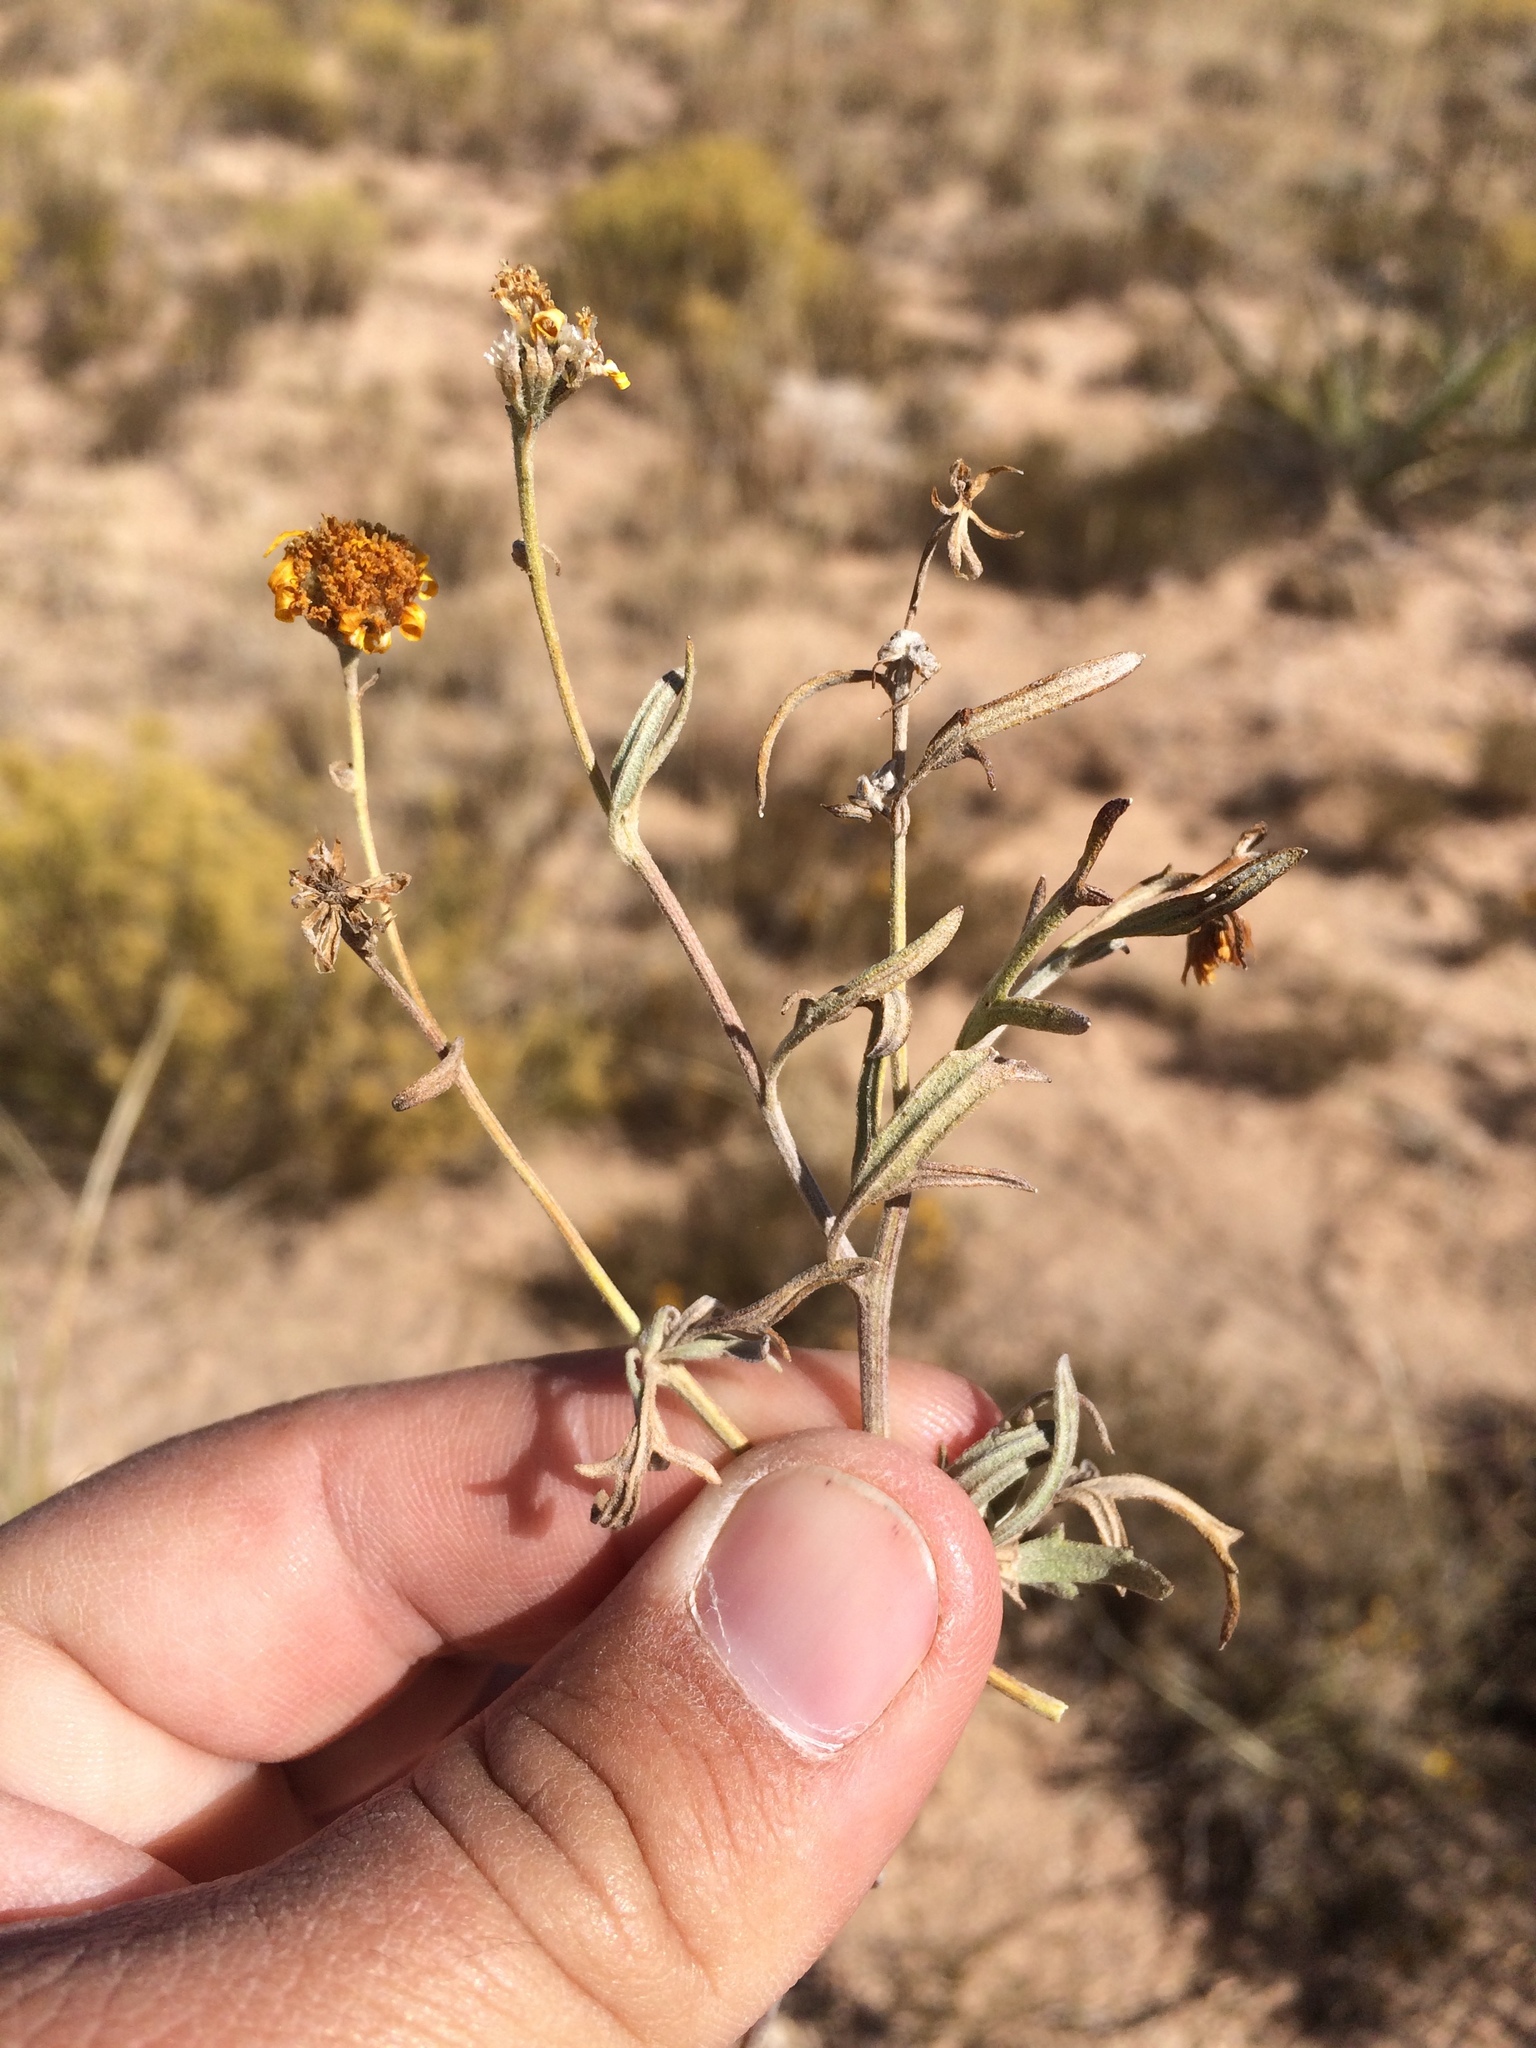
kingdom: Plantae
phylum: Tracheophyta
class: Magnoliopsida
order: Asterales
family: Asteraceae
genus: Picradeniopsis
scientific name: Picradeniopsis absinthifolia
